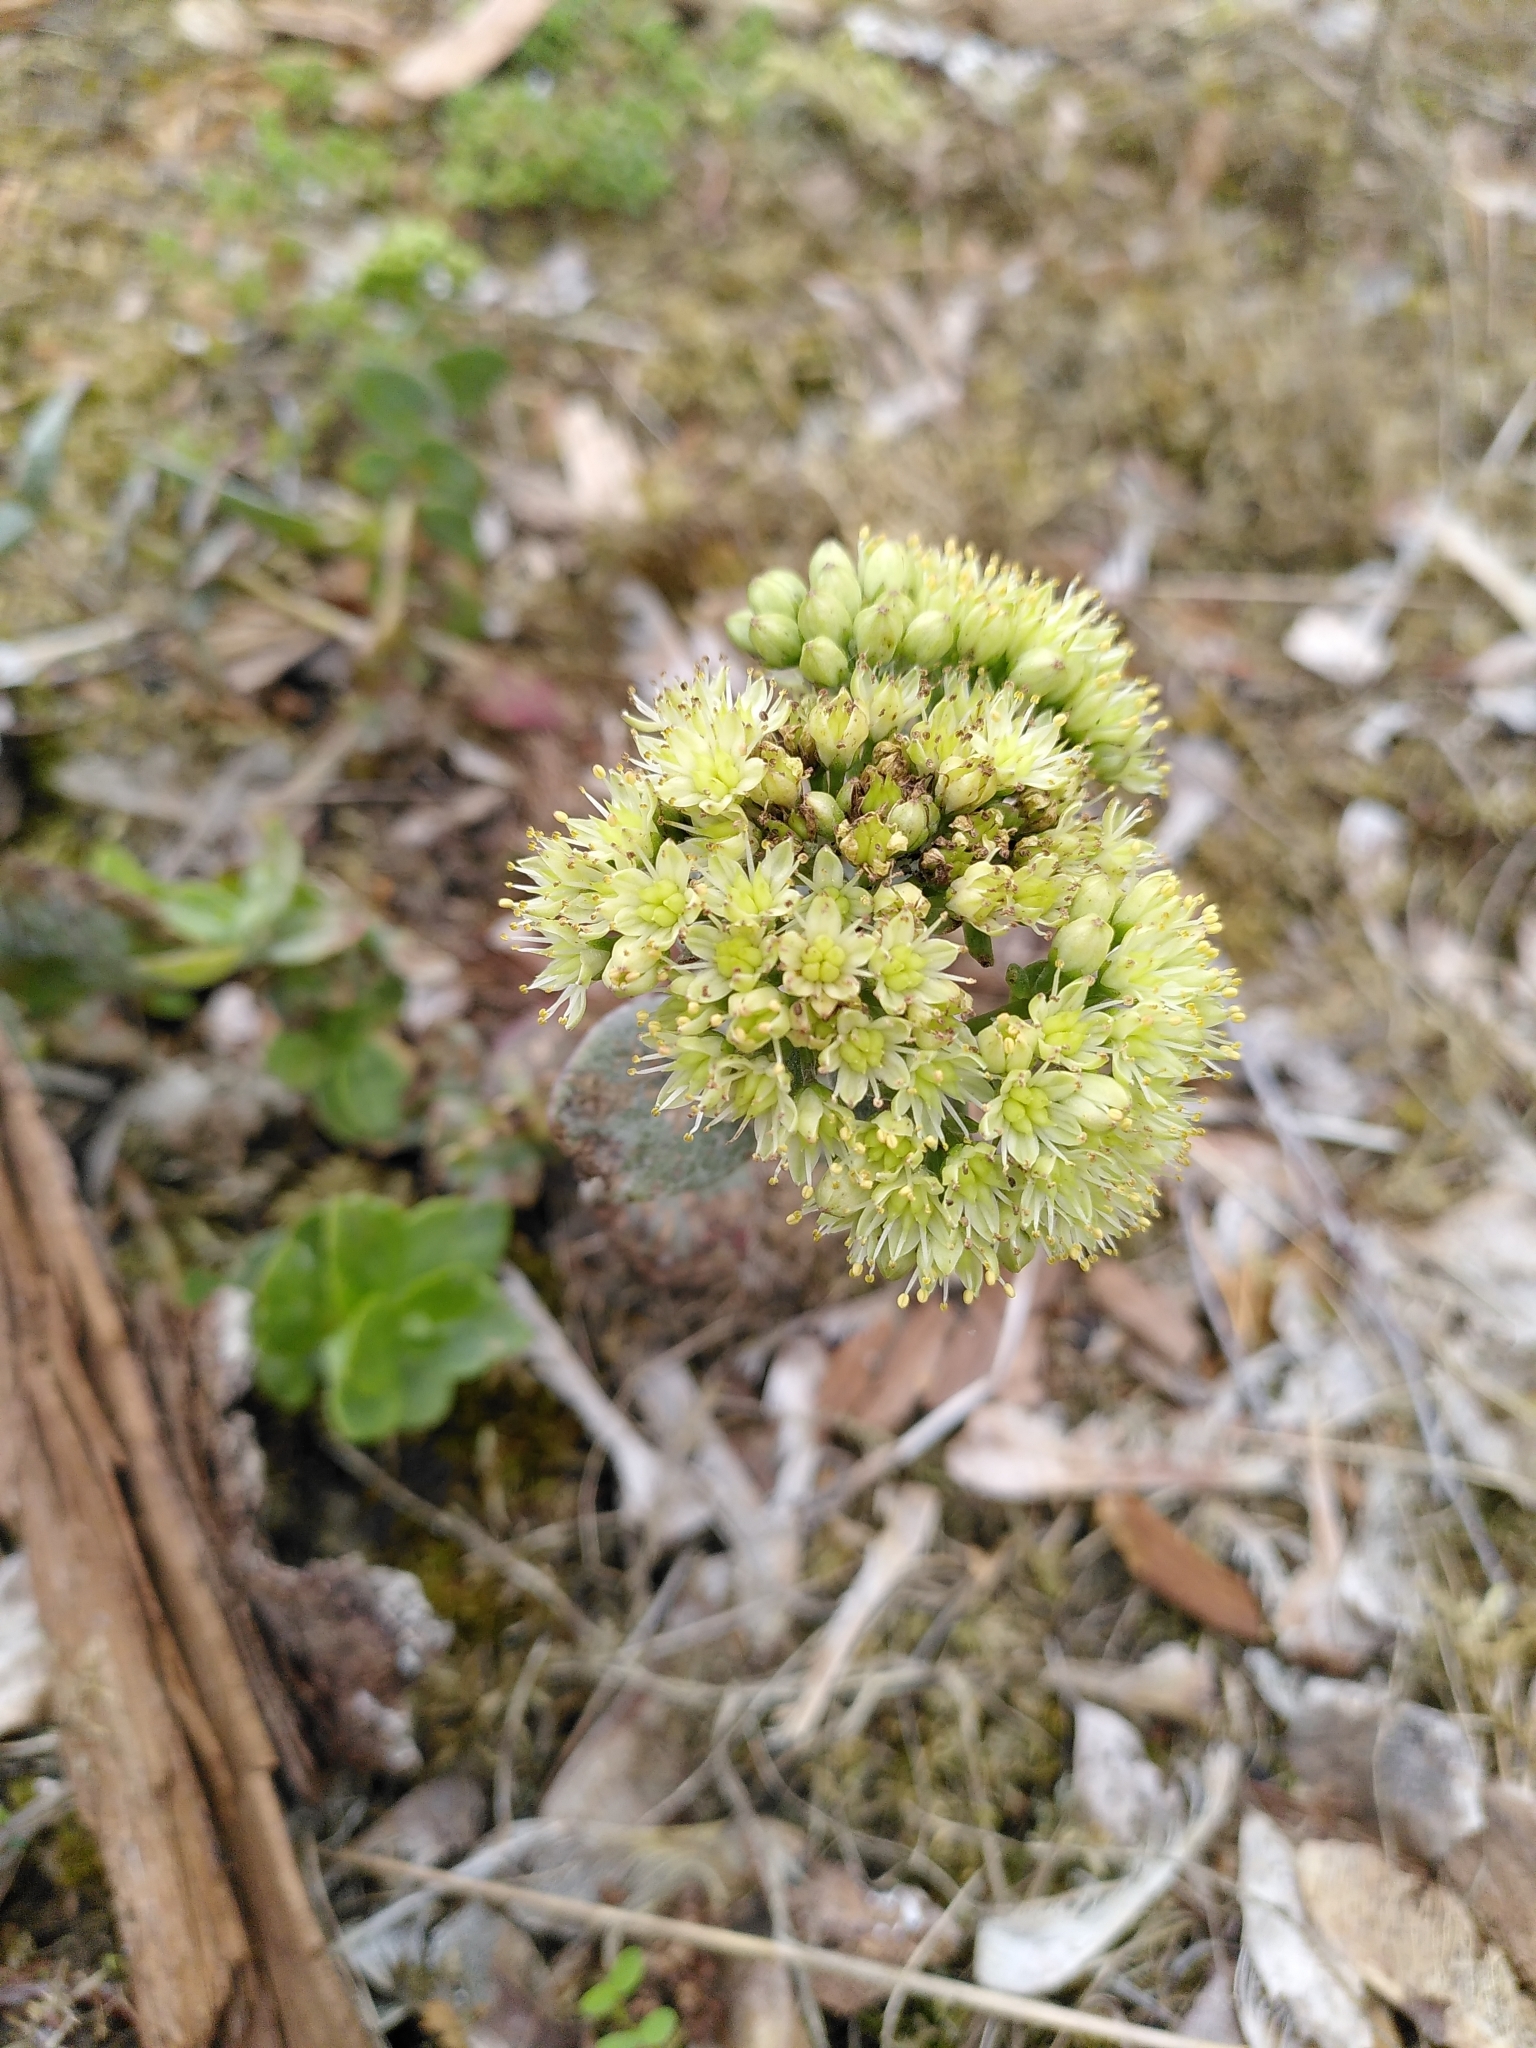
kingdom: Plantae
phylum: Tracheophyta
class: Magnoliopsida
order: Saxifragales
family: Crassulaceae
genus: Hylotelephium
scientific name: Hylotelephium maximum
